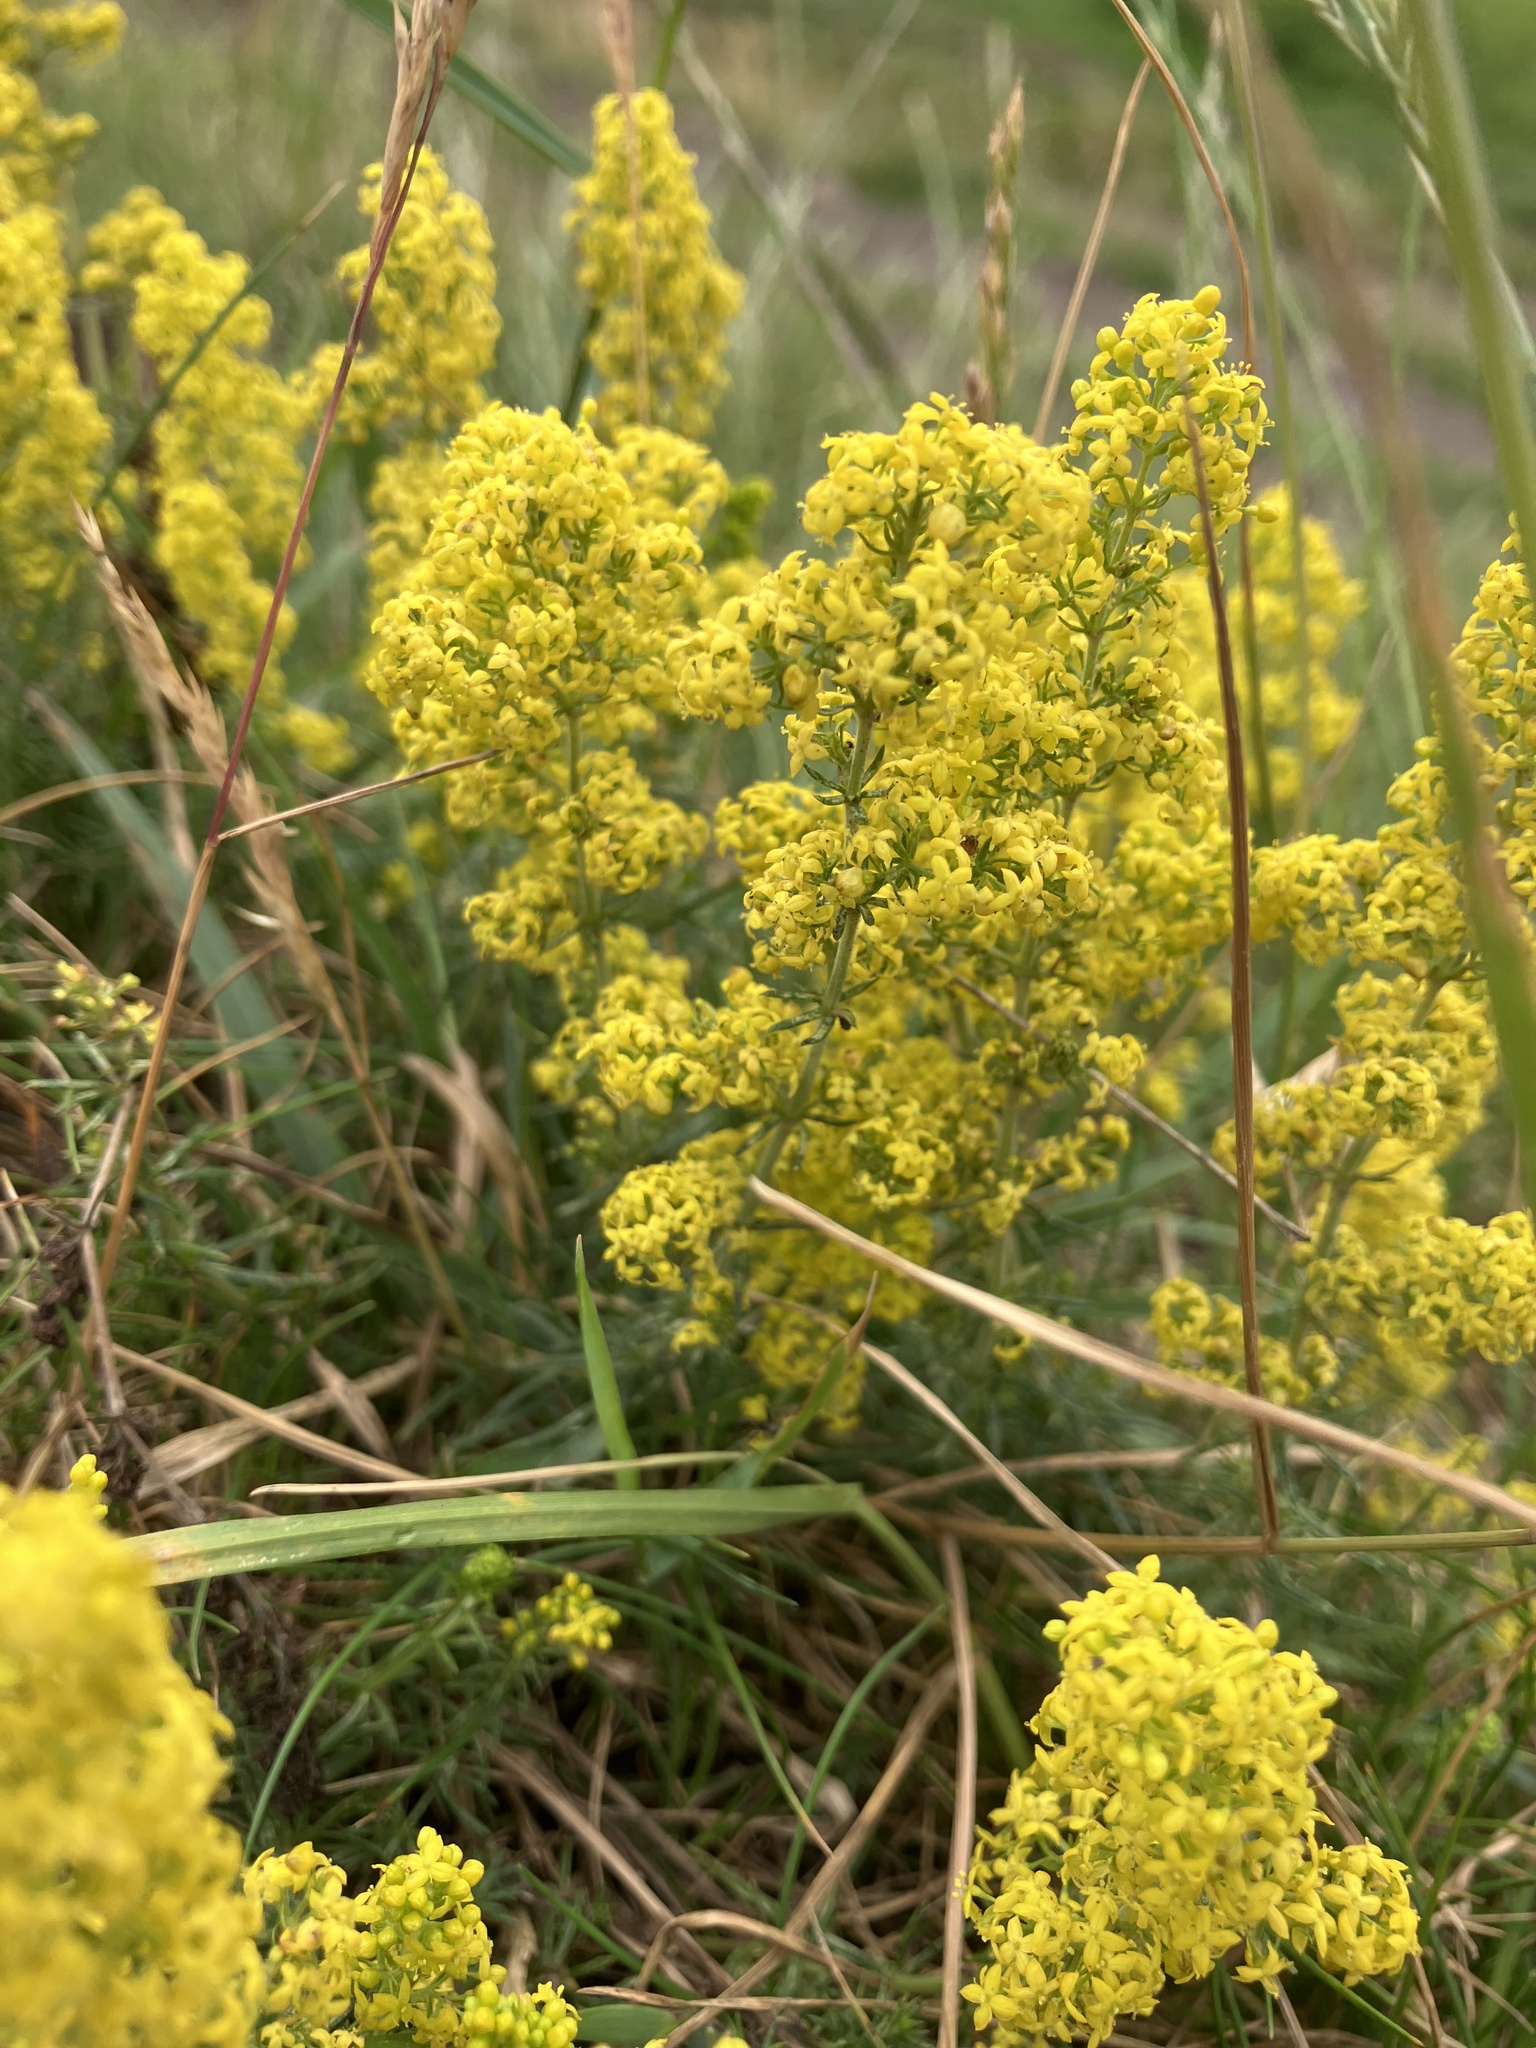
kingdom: Plantae
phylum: Tracheophyta
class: Magnoliopsida
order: Gentianales
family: Rubiaceae
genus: Galium
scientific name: Galium verum
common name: Lady's bedstraw
